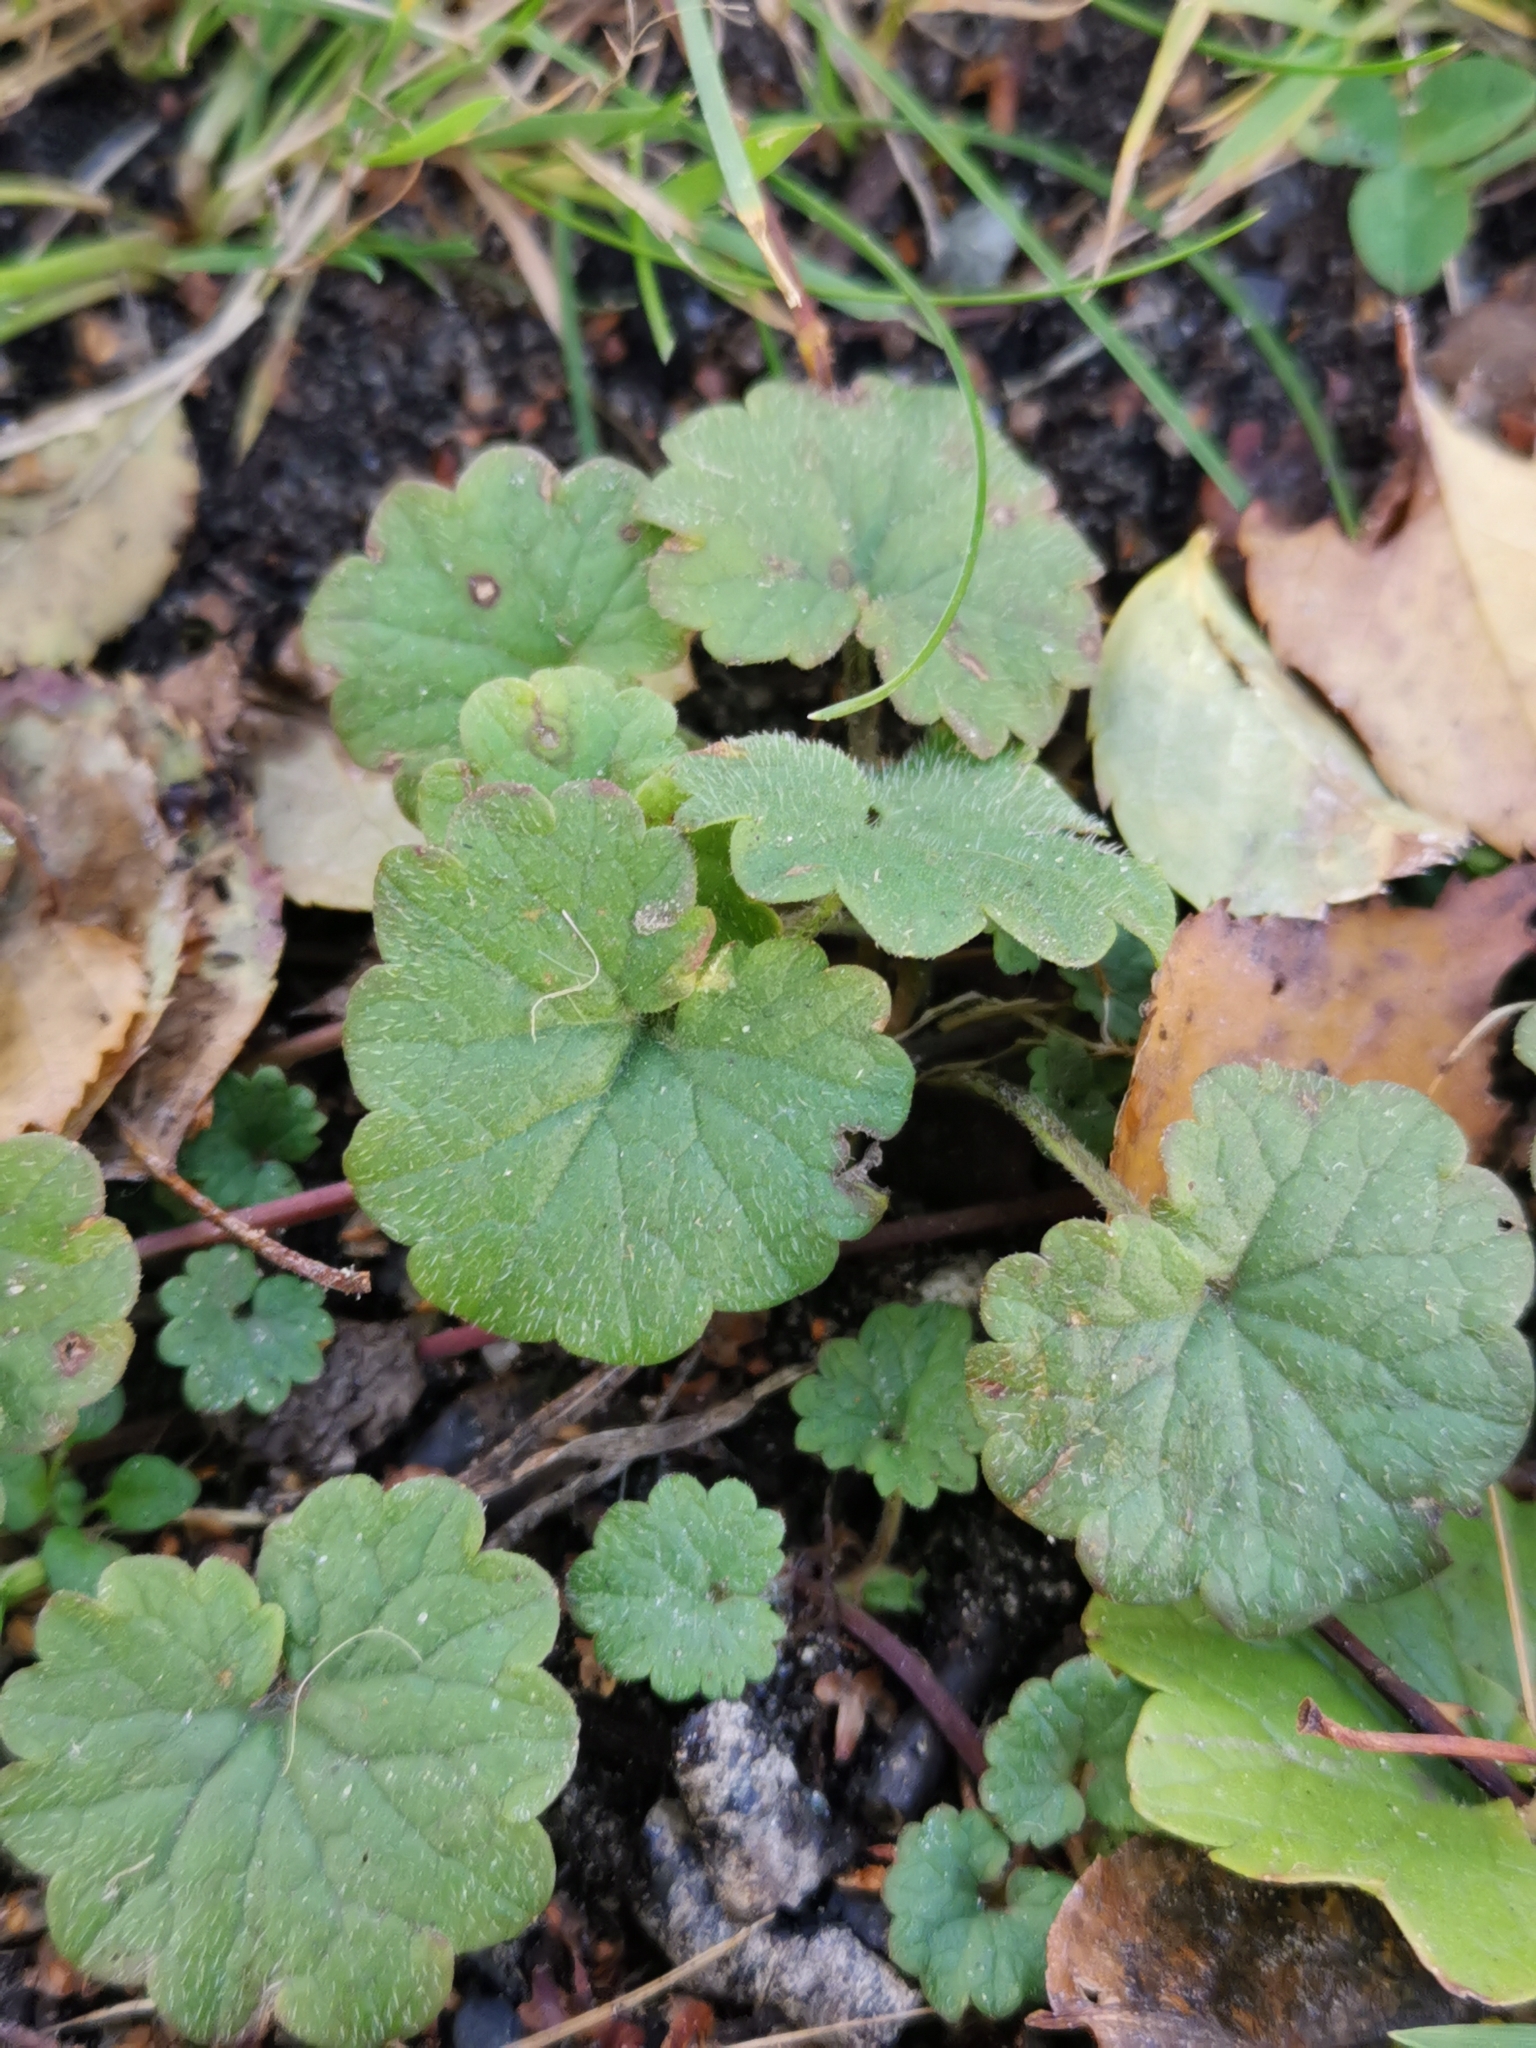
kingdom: Plantae
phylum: Tracheophyta
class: Magnoliopsida
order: Lamiales
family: Lamiaceae
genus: Glechoma
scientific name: Glechoma hederacea
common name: Ground ivy
